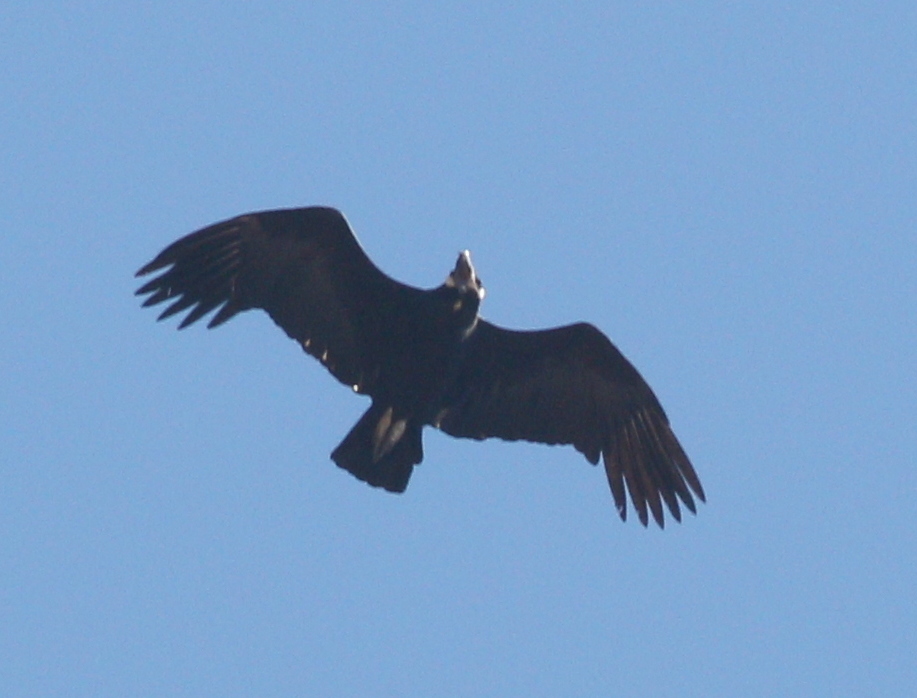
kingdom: Animalia
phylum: Chordata
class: Aves
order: Accipitriformes
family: Cathartidae
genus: Vultur
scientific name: Vultur gryphus
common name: Andean condor
